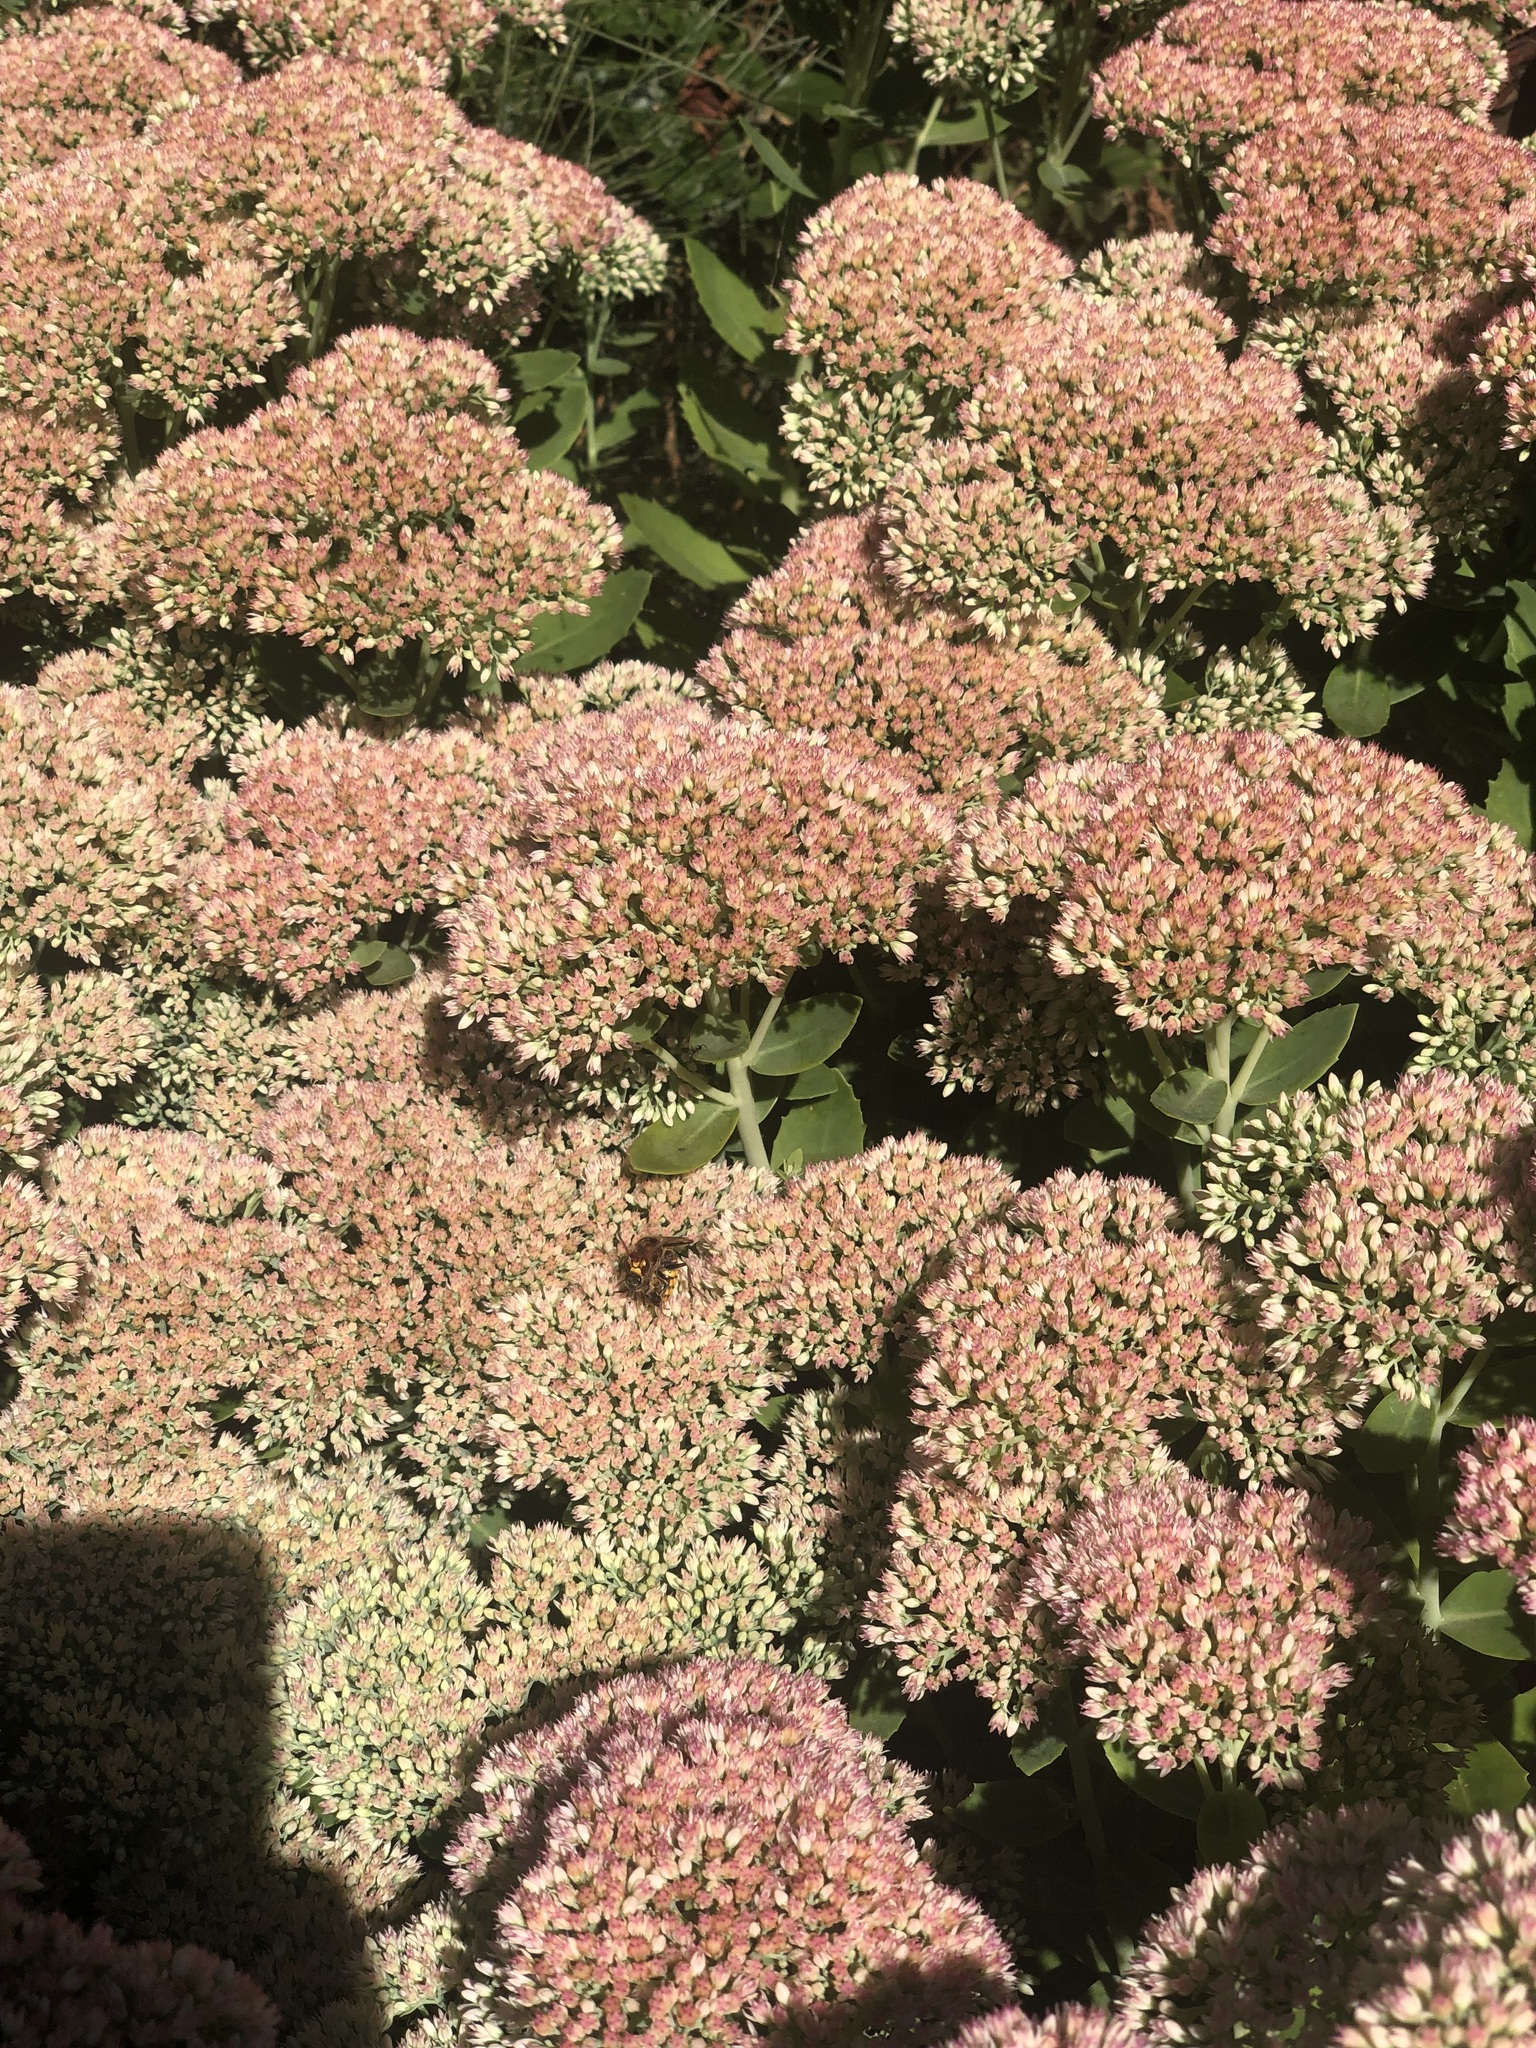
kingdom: Animalia
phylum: Arthropoda
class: Insecta
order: Hymenoptera
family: Vespidae
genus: Vespa
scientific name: Vespa crabro
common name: Hornet
